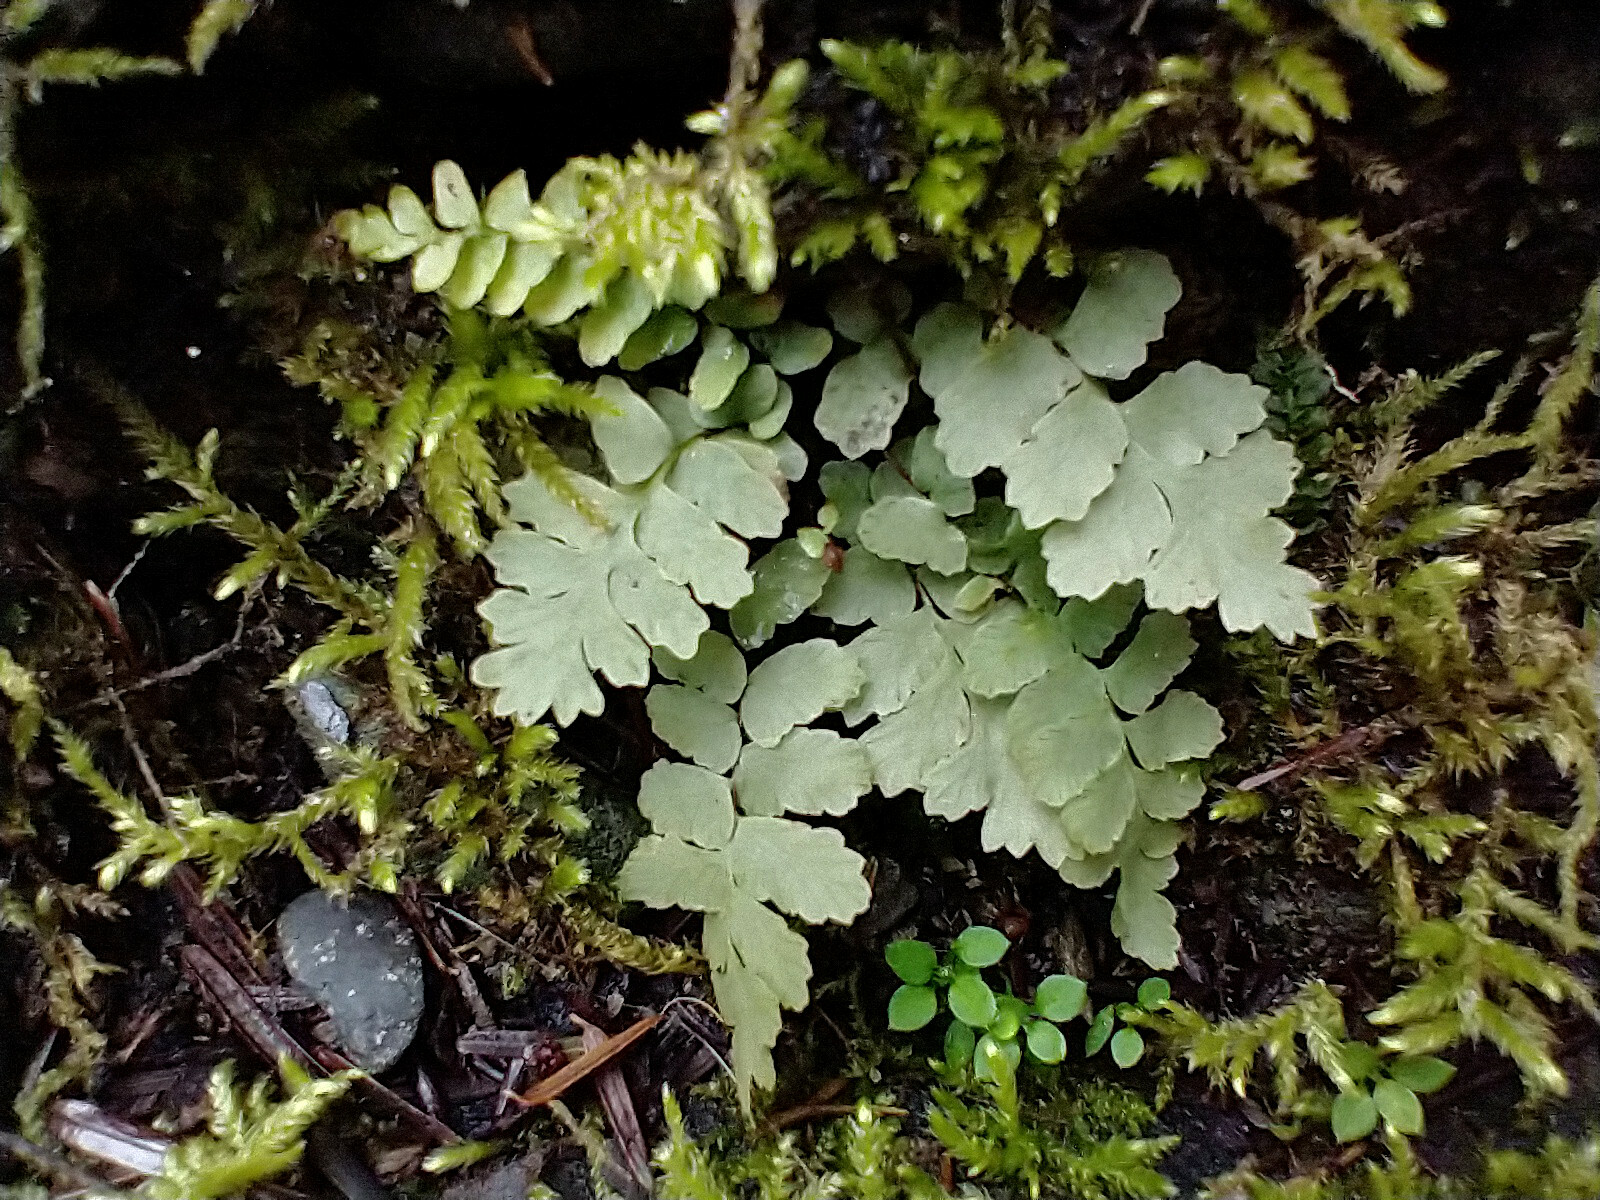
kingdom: Plantae
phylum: Tracheophyta
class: Polypodiopsida
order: Polypodiales
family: Aspleniaceae
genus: Asplenium
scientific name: Asplenium platyneuron
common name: Ebony spleenwort
